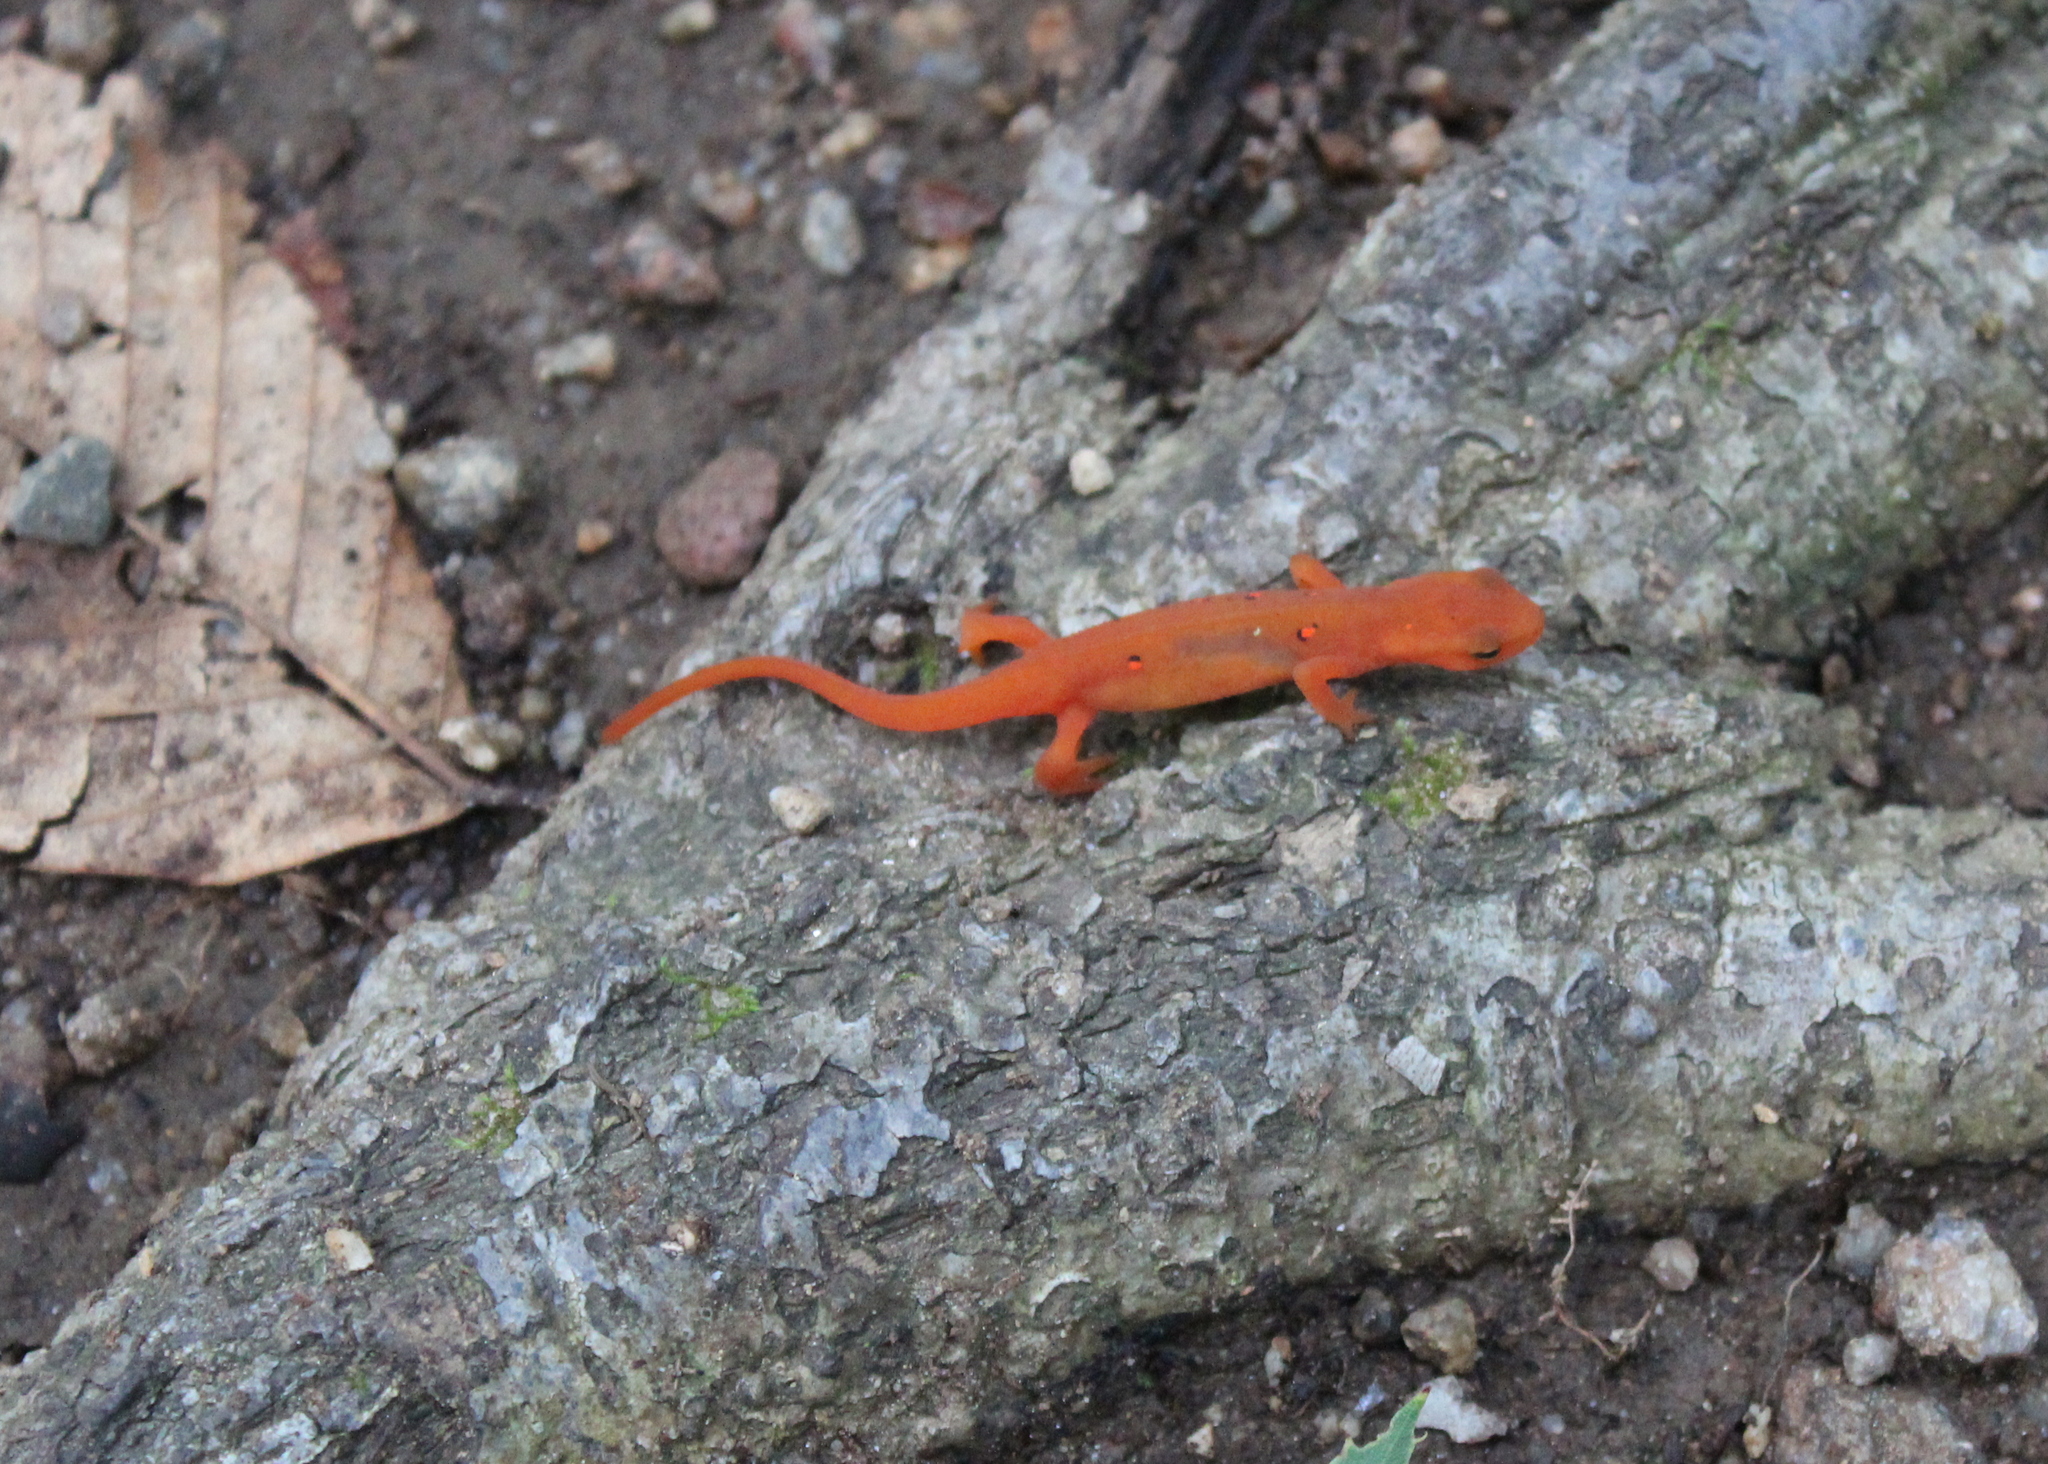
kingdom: Animalia
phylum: Chordata
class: Amphibia
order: Caudata
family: Salamandridae
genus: Notophthalmus
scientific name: Notophthalmus viridescens
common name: Eastern newt
